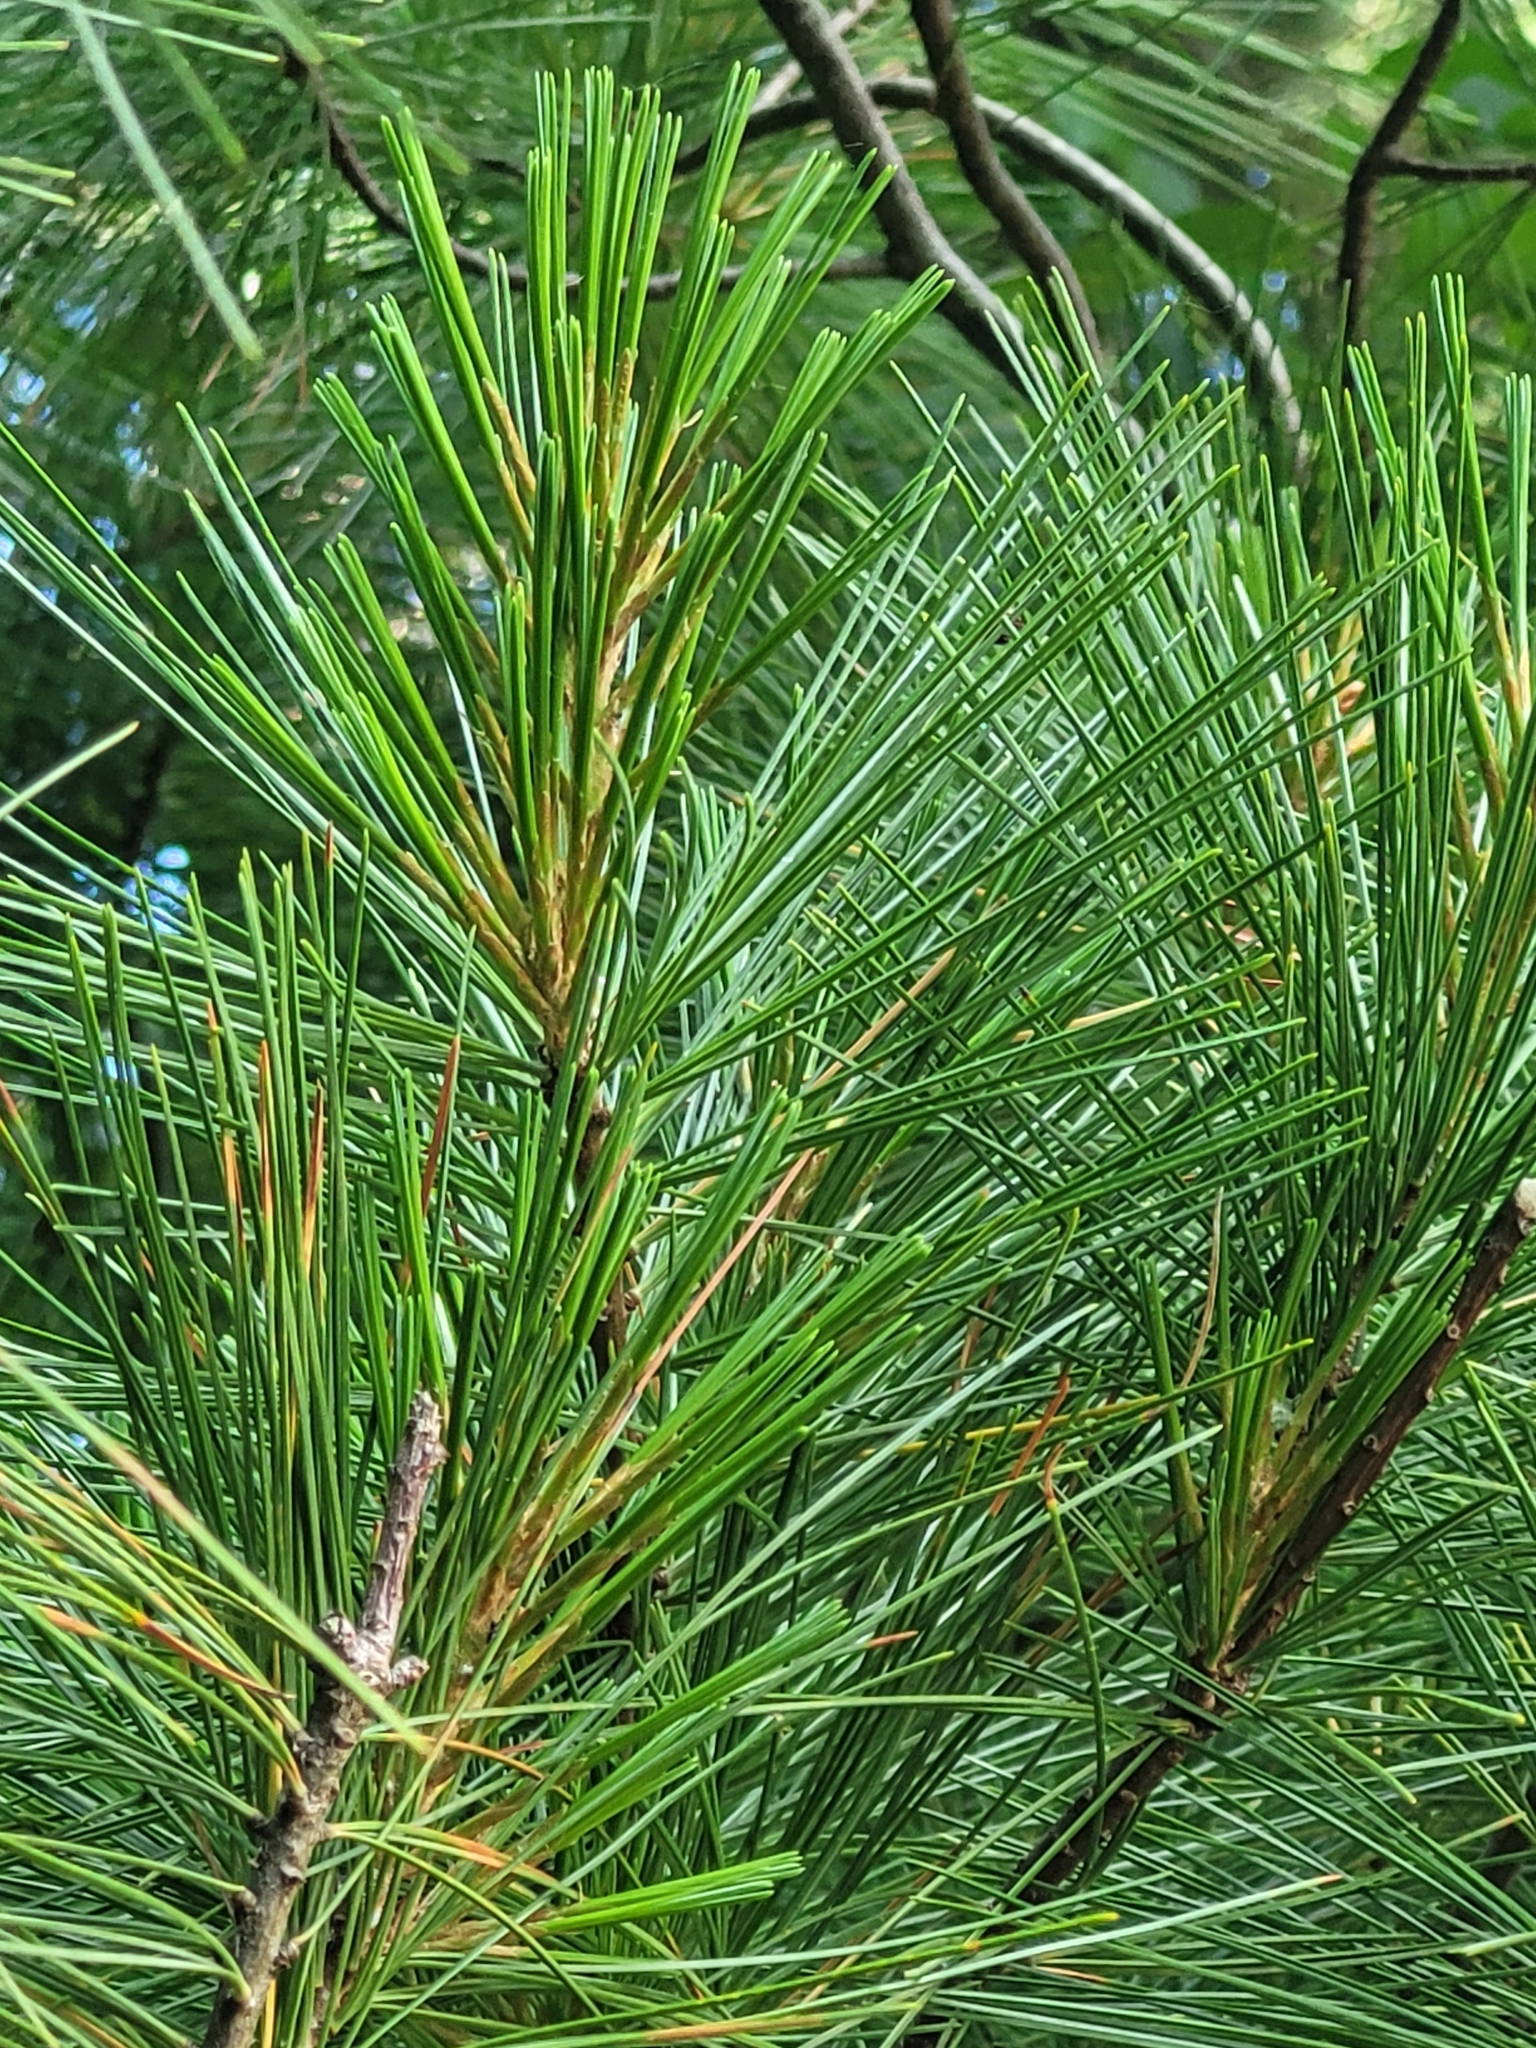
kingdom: Plantae
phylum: Tracheophyta
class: Pinopsida
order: Pinales
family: Pinaceae
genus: Pinus
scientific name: Pinus strobus
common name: Weymouth pine
